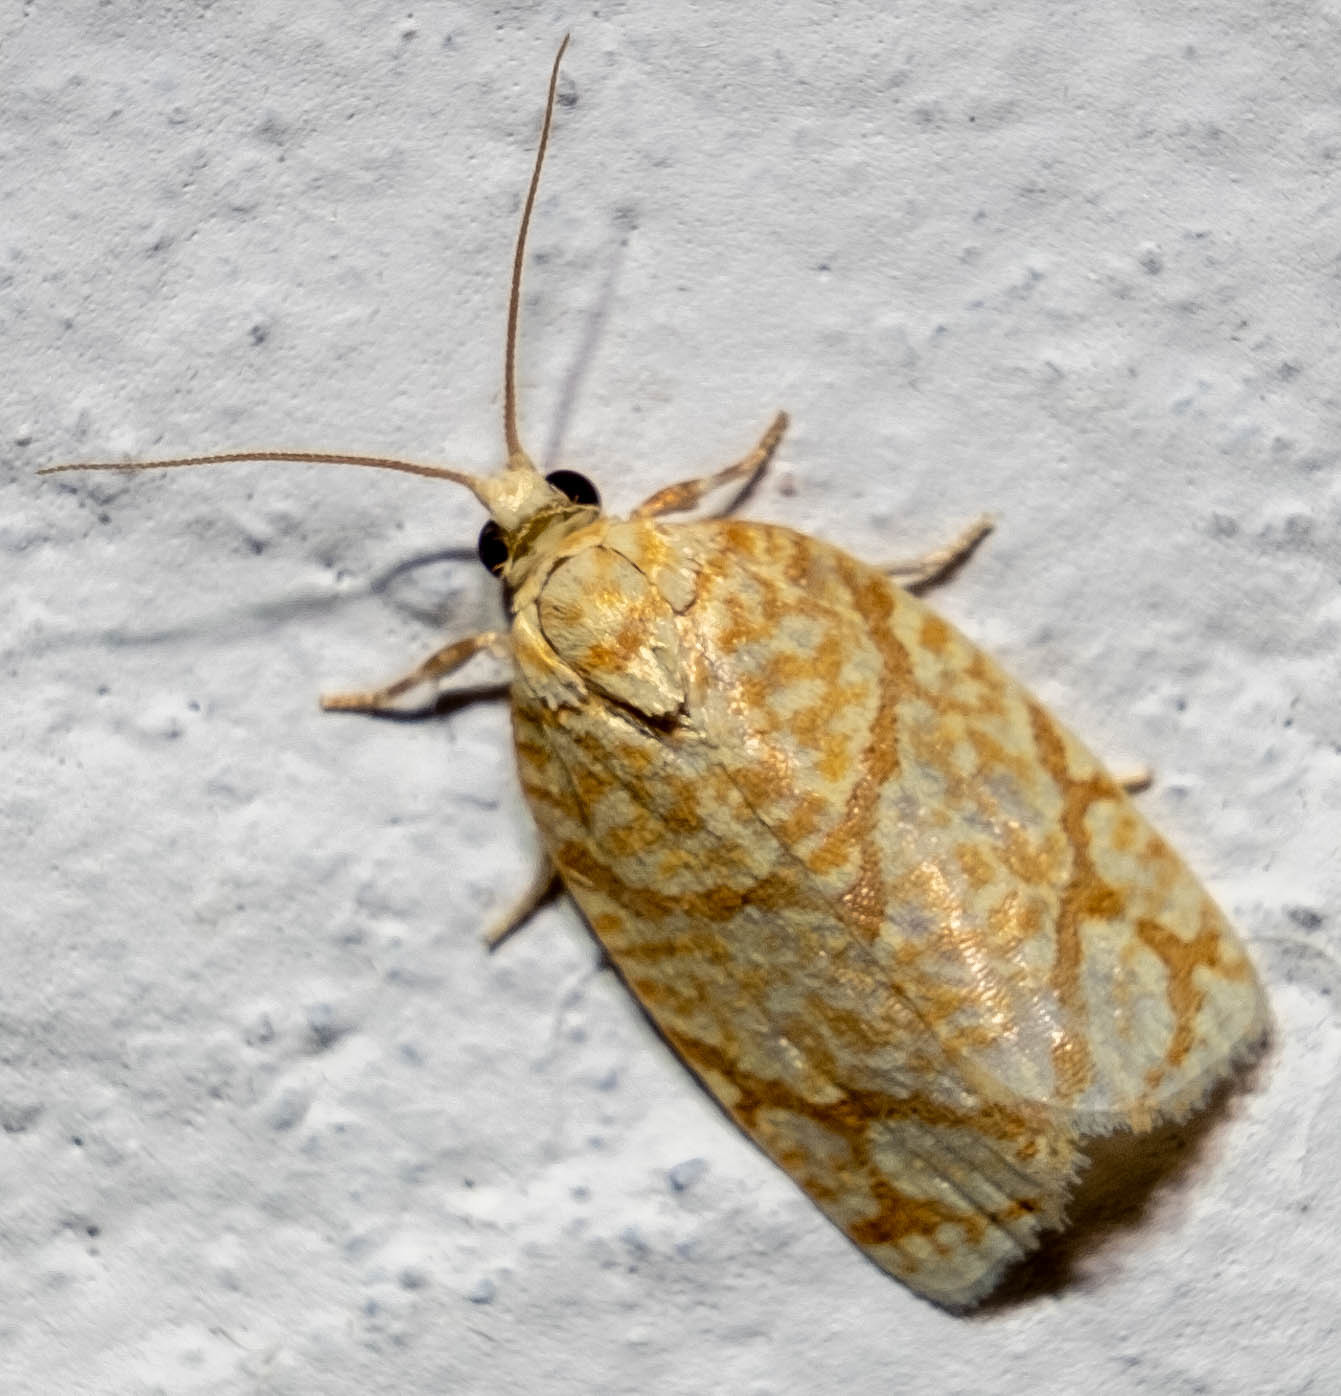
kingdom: Animalia
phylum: Arthropoda
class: Insecta
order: Lepidoptera
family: Tortricidae
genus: Argyrotaenia
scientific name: Argyrotaenia quercifoliana
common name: Yellow-winged oak leafroller moth
